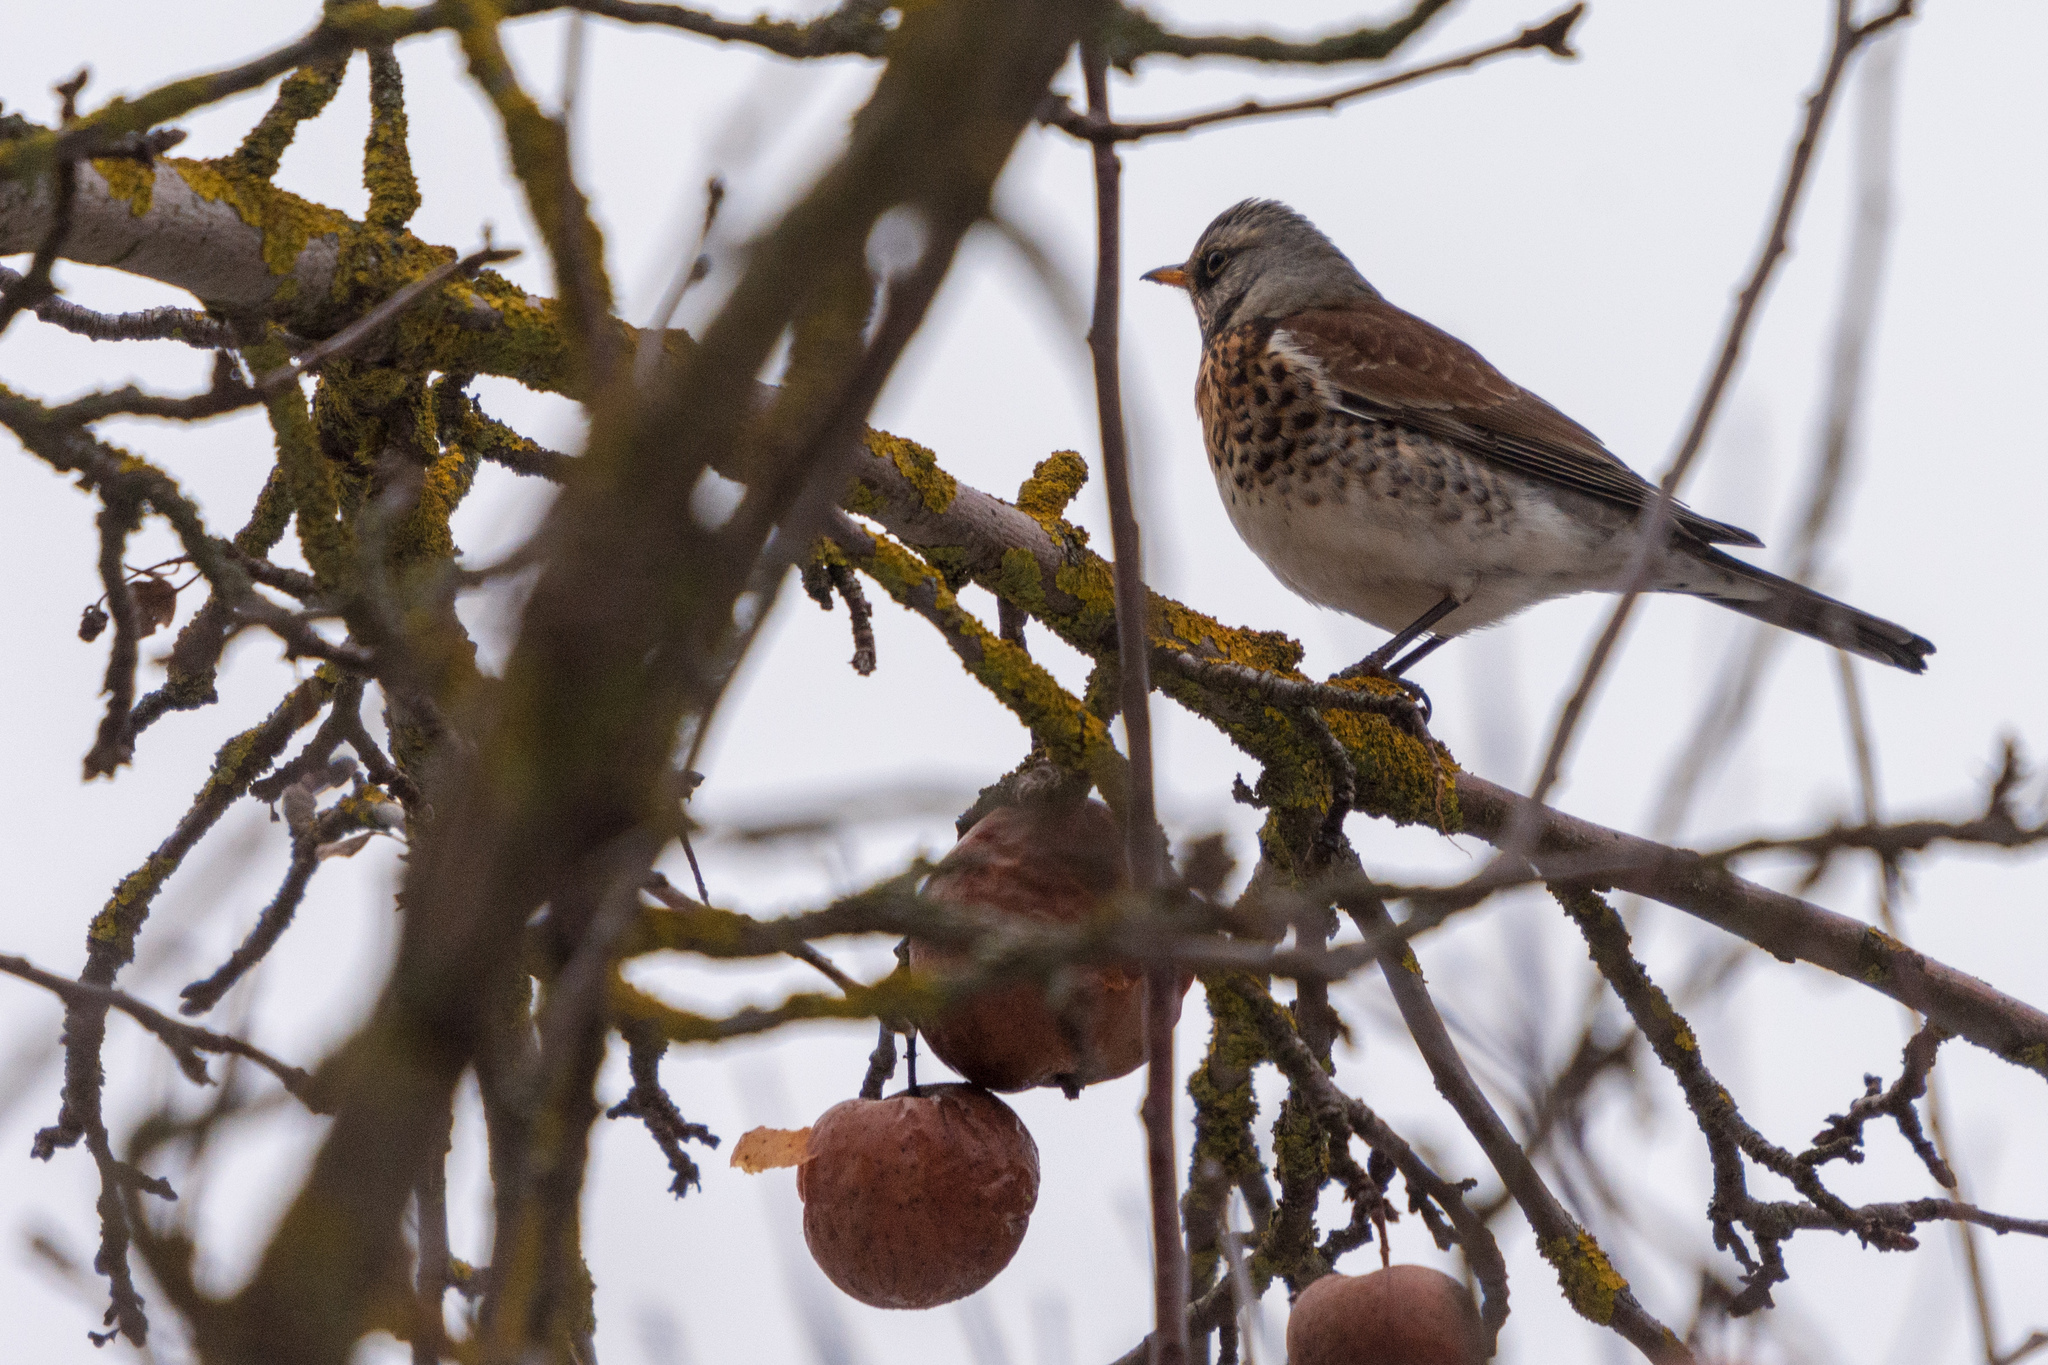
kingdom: Animalia
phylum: Chordata
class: Aves
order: Passeriformes
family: Turdidae
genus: Turdus
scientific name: Turdus pilaris
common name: Fieldfare
